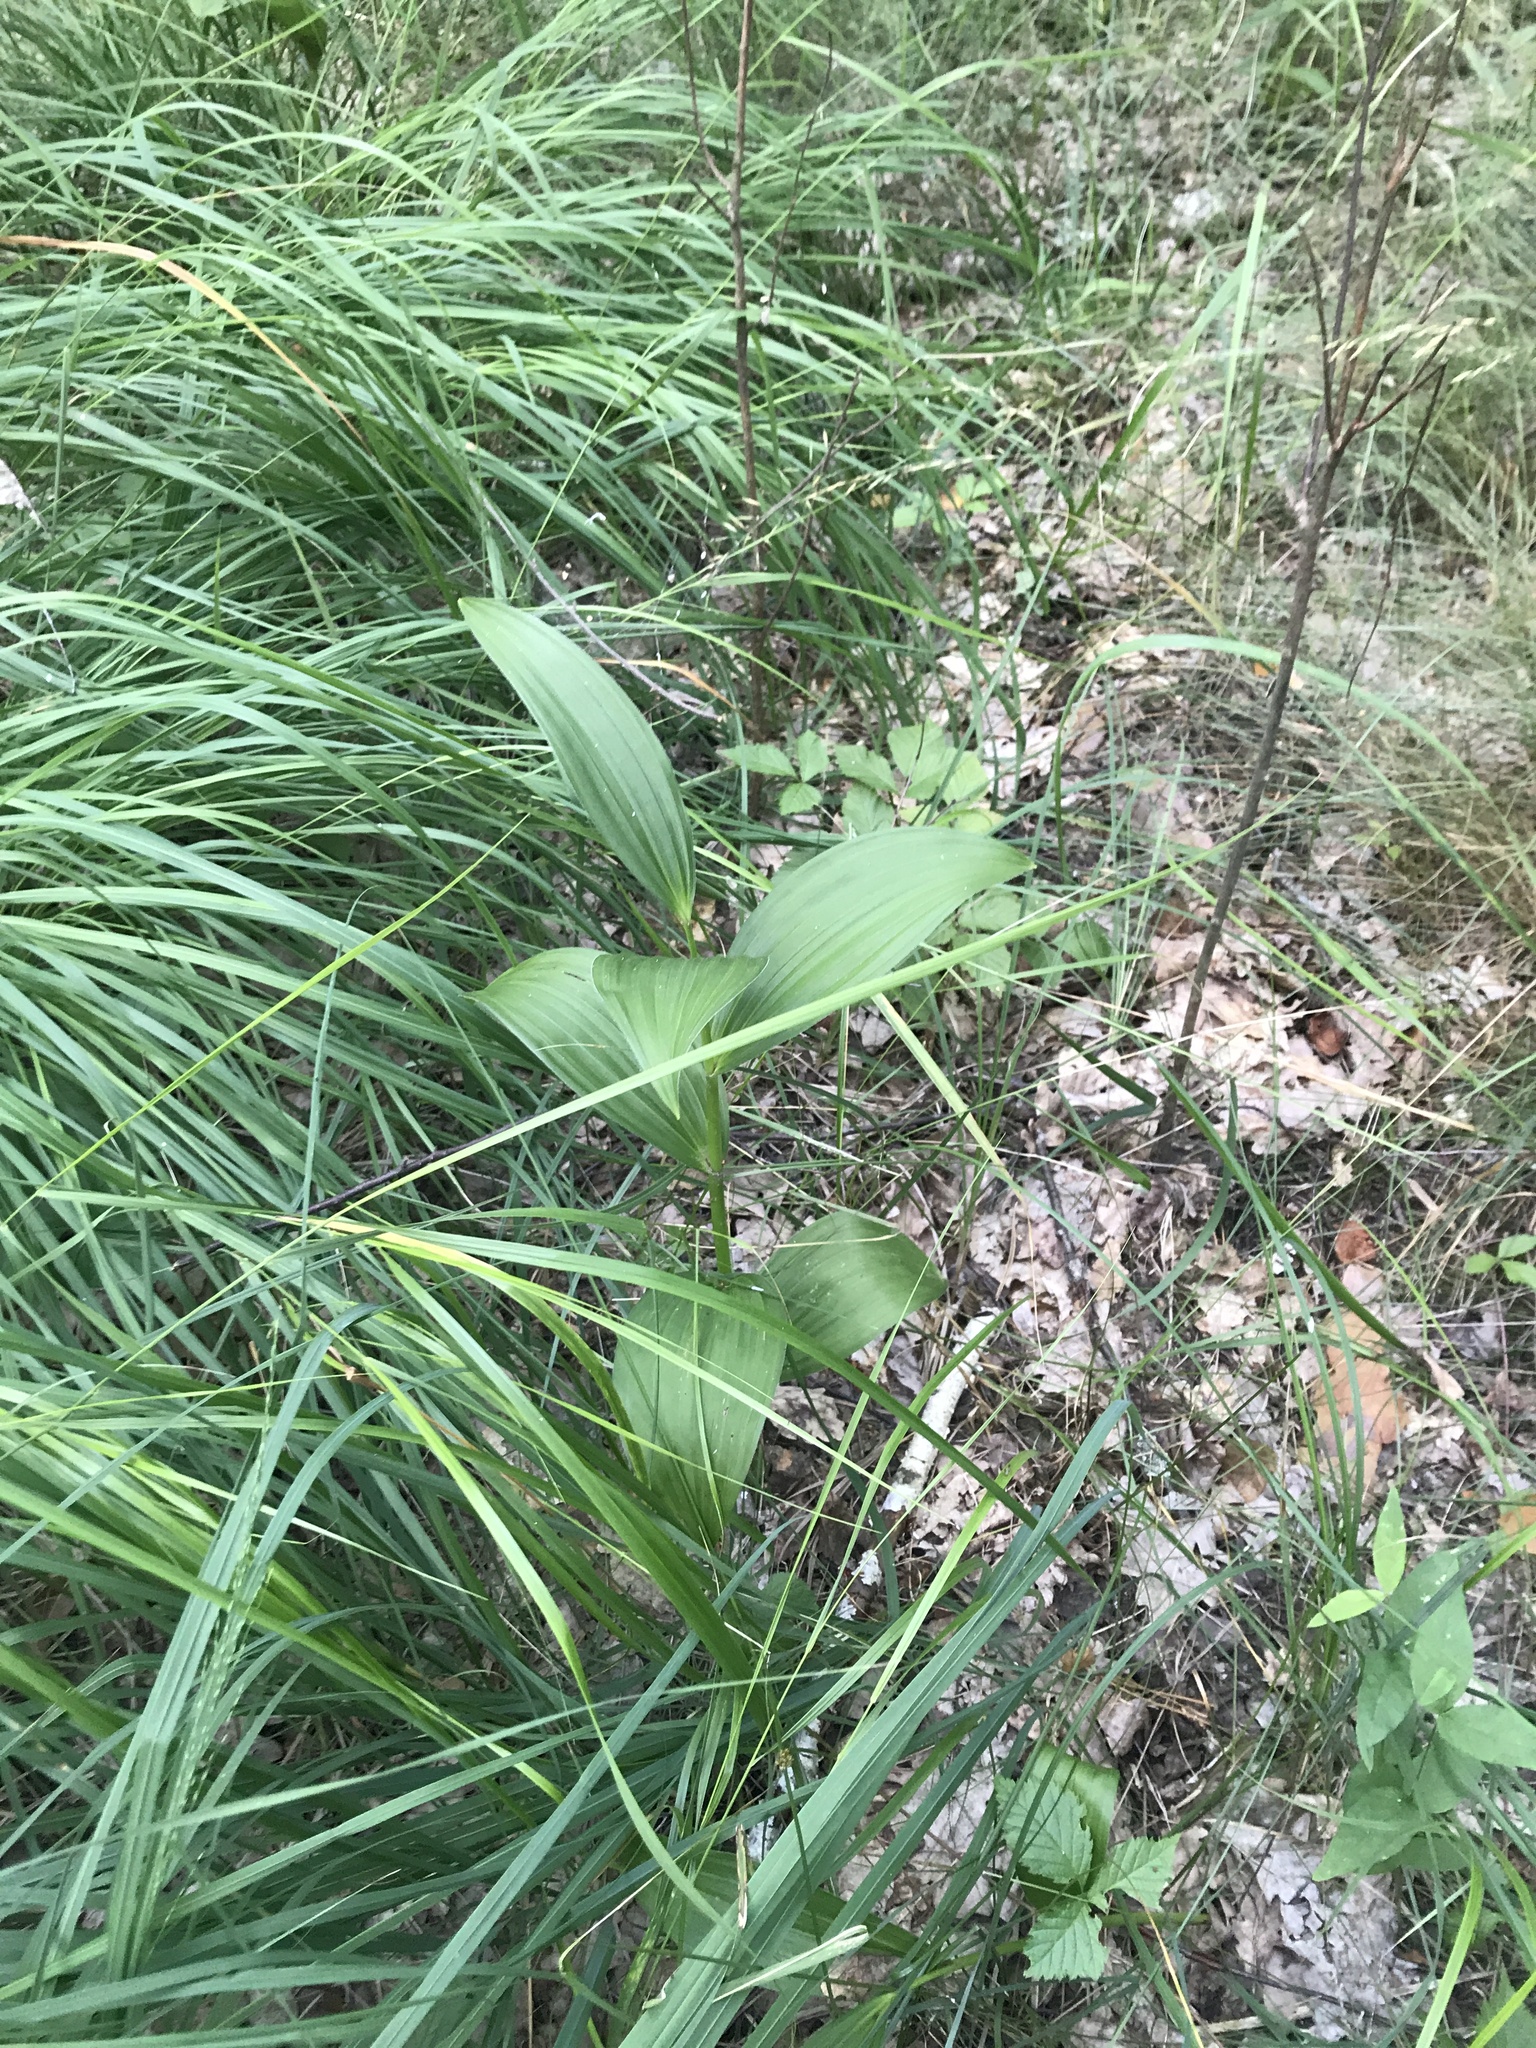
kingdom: Plantae
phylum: Tracheophyta
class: Liliopsida
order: Liliales
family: Melanthiaceae
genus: Veratrum
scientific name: Veratrum lobelianum
